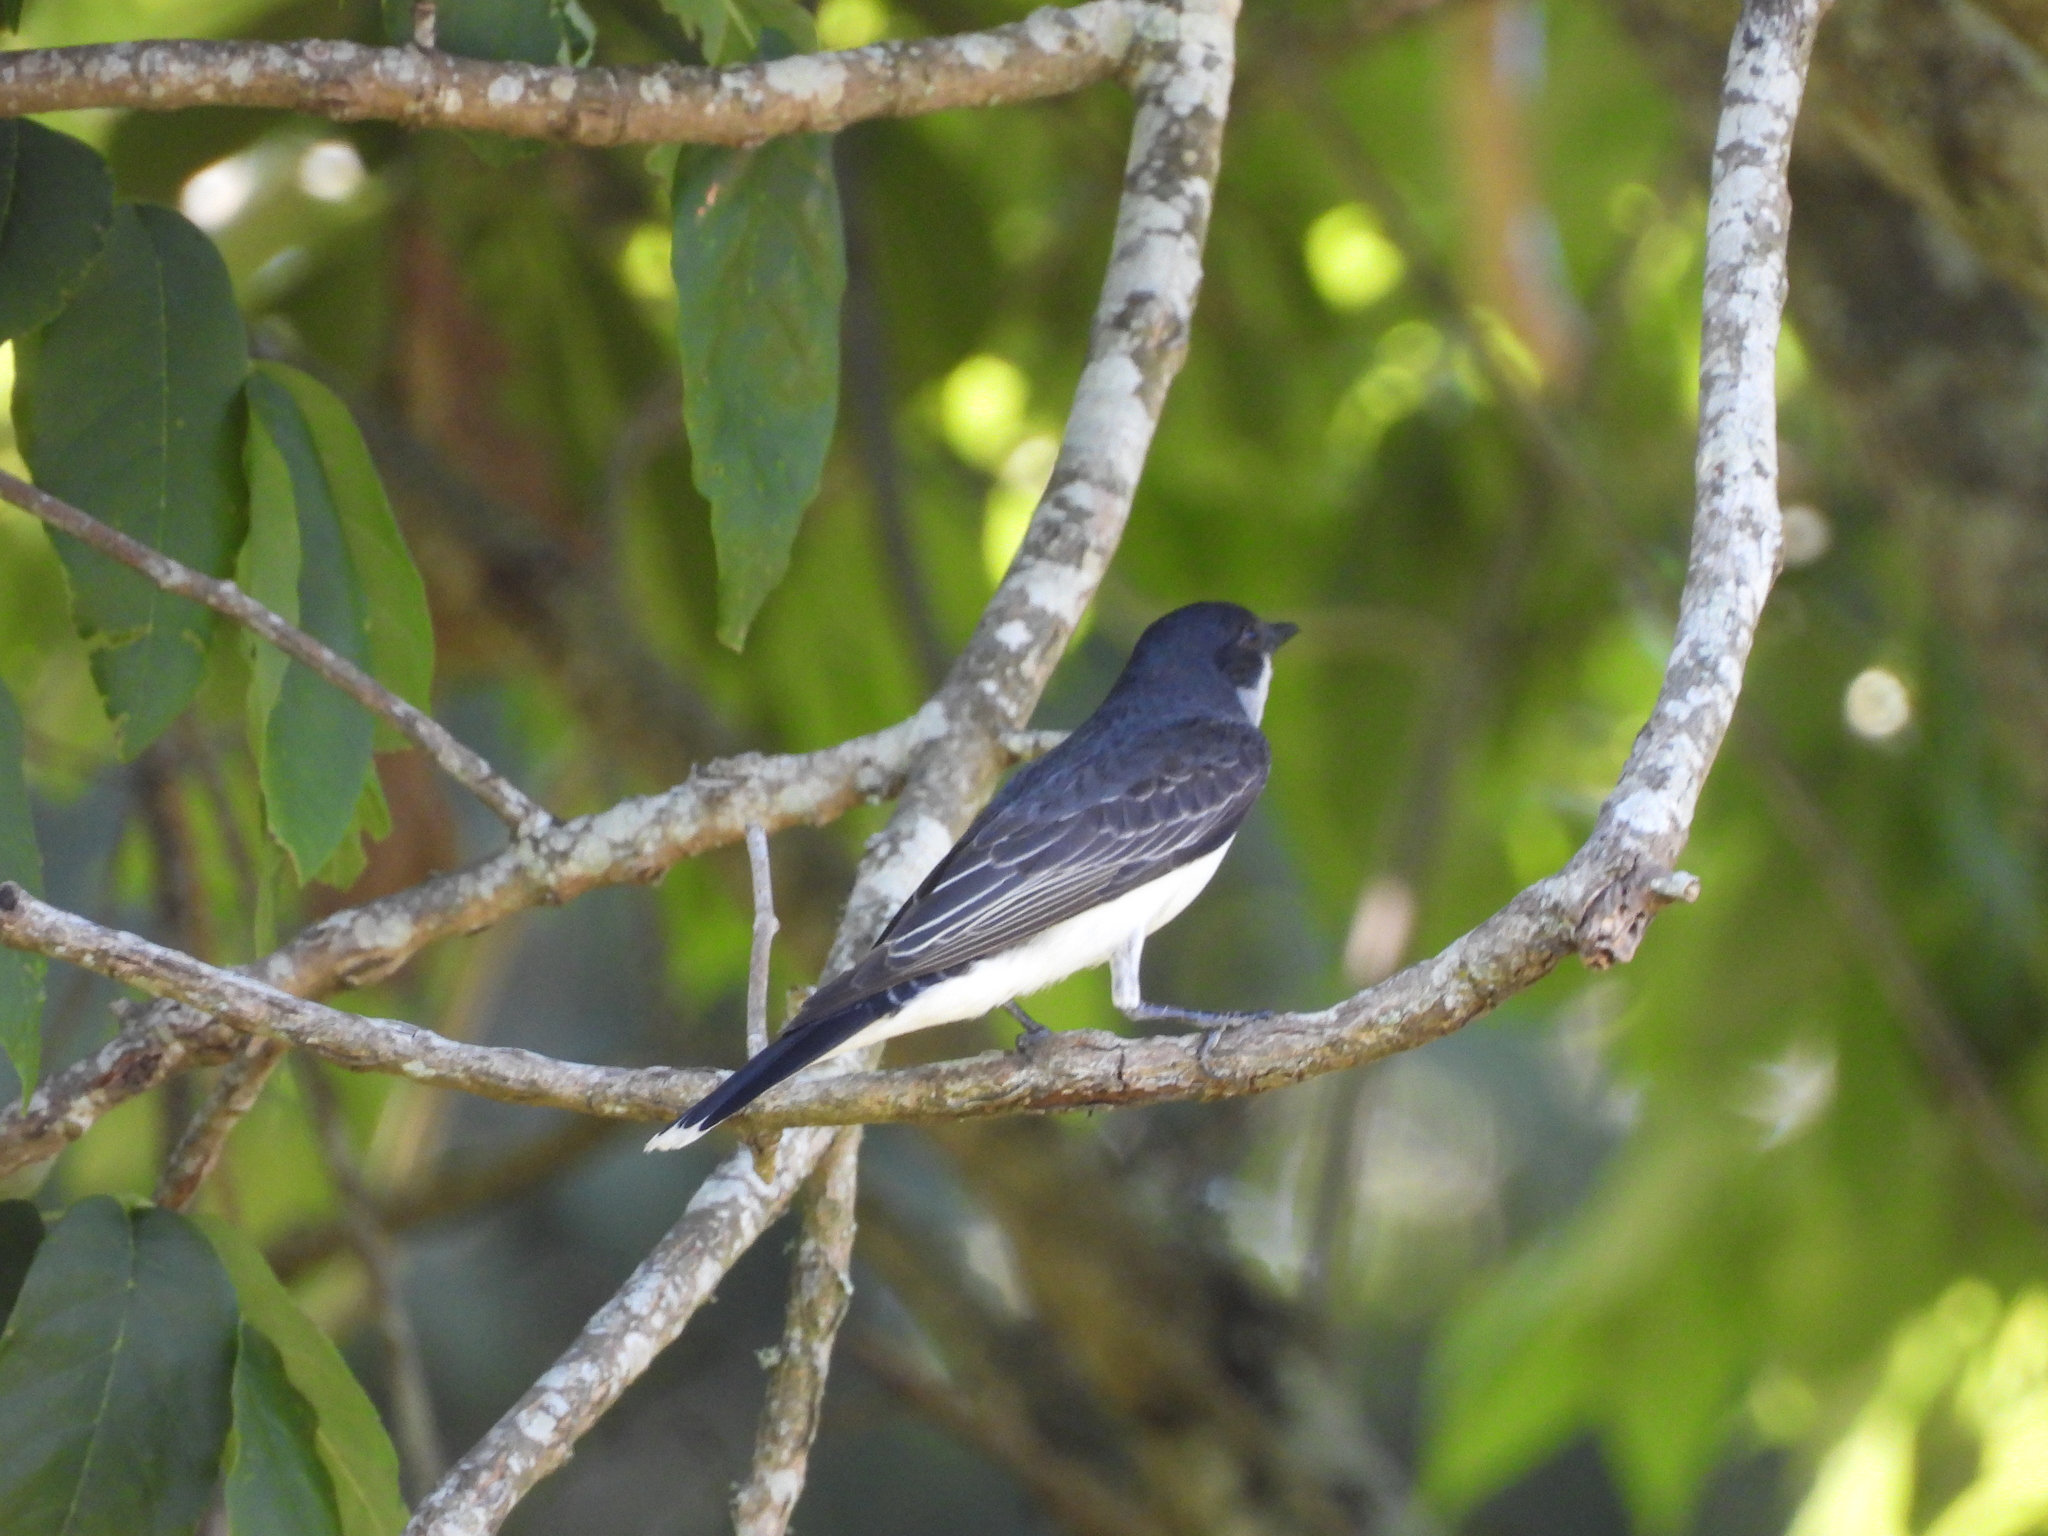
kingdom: Animalia
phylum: Chordata
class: Aves
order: Passeriformes
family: Tyrannidae
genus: Tyrannus
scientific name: Tyrannus tyrannus
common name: Eastern kingbird
